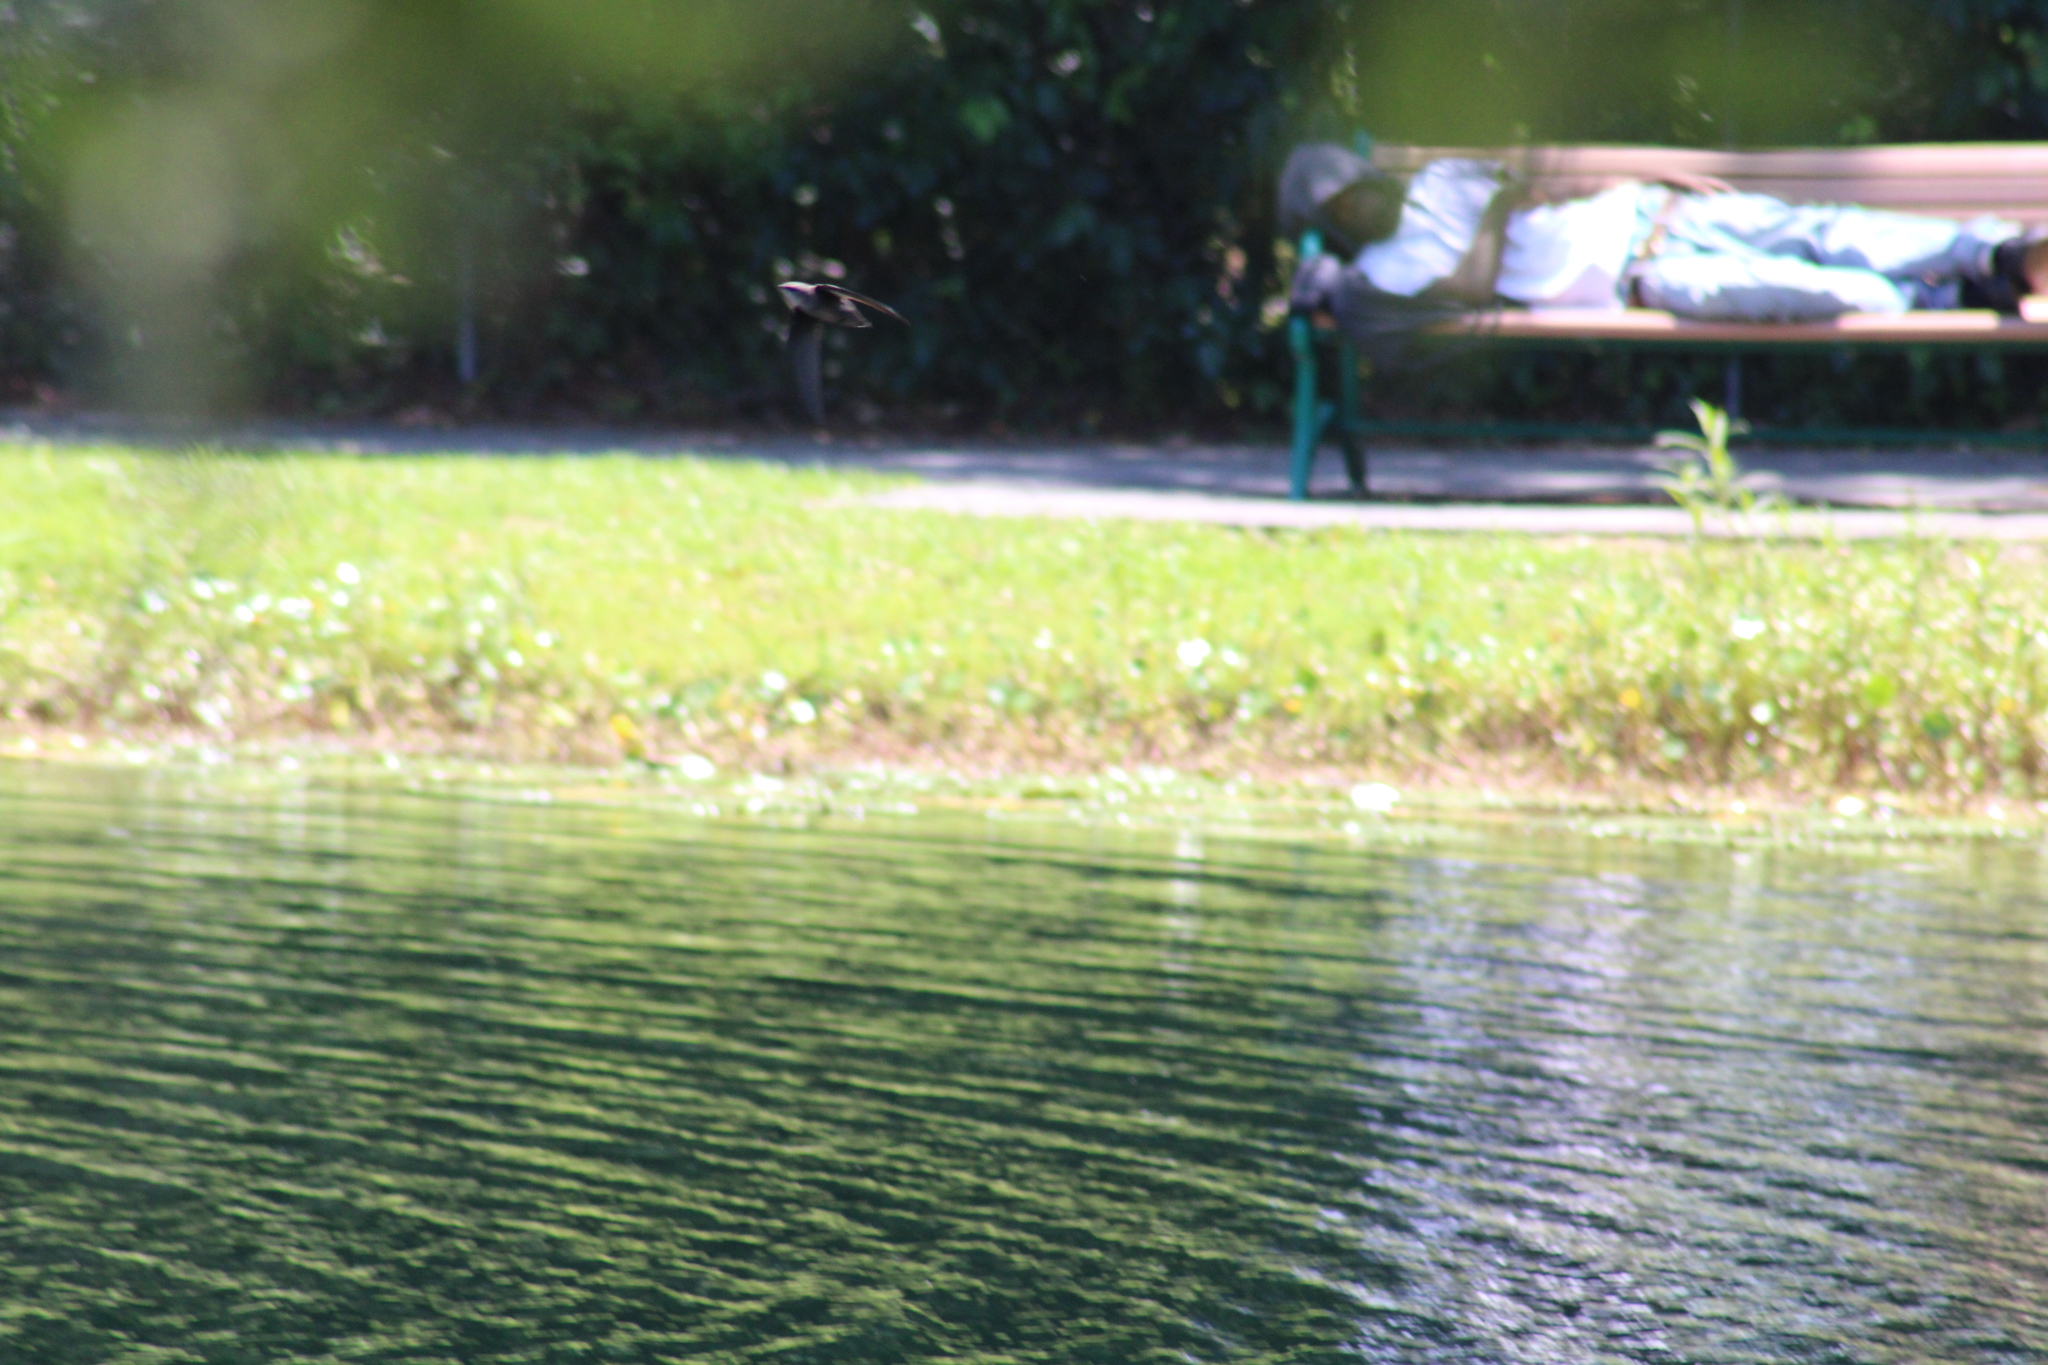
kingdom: Animalia
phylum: Chordata
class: Aves
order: Apodiformes
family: Apodidae
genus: Chaetura
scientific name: Chaetura pelagica
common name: Chimney swift
